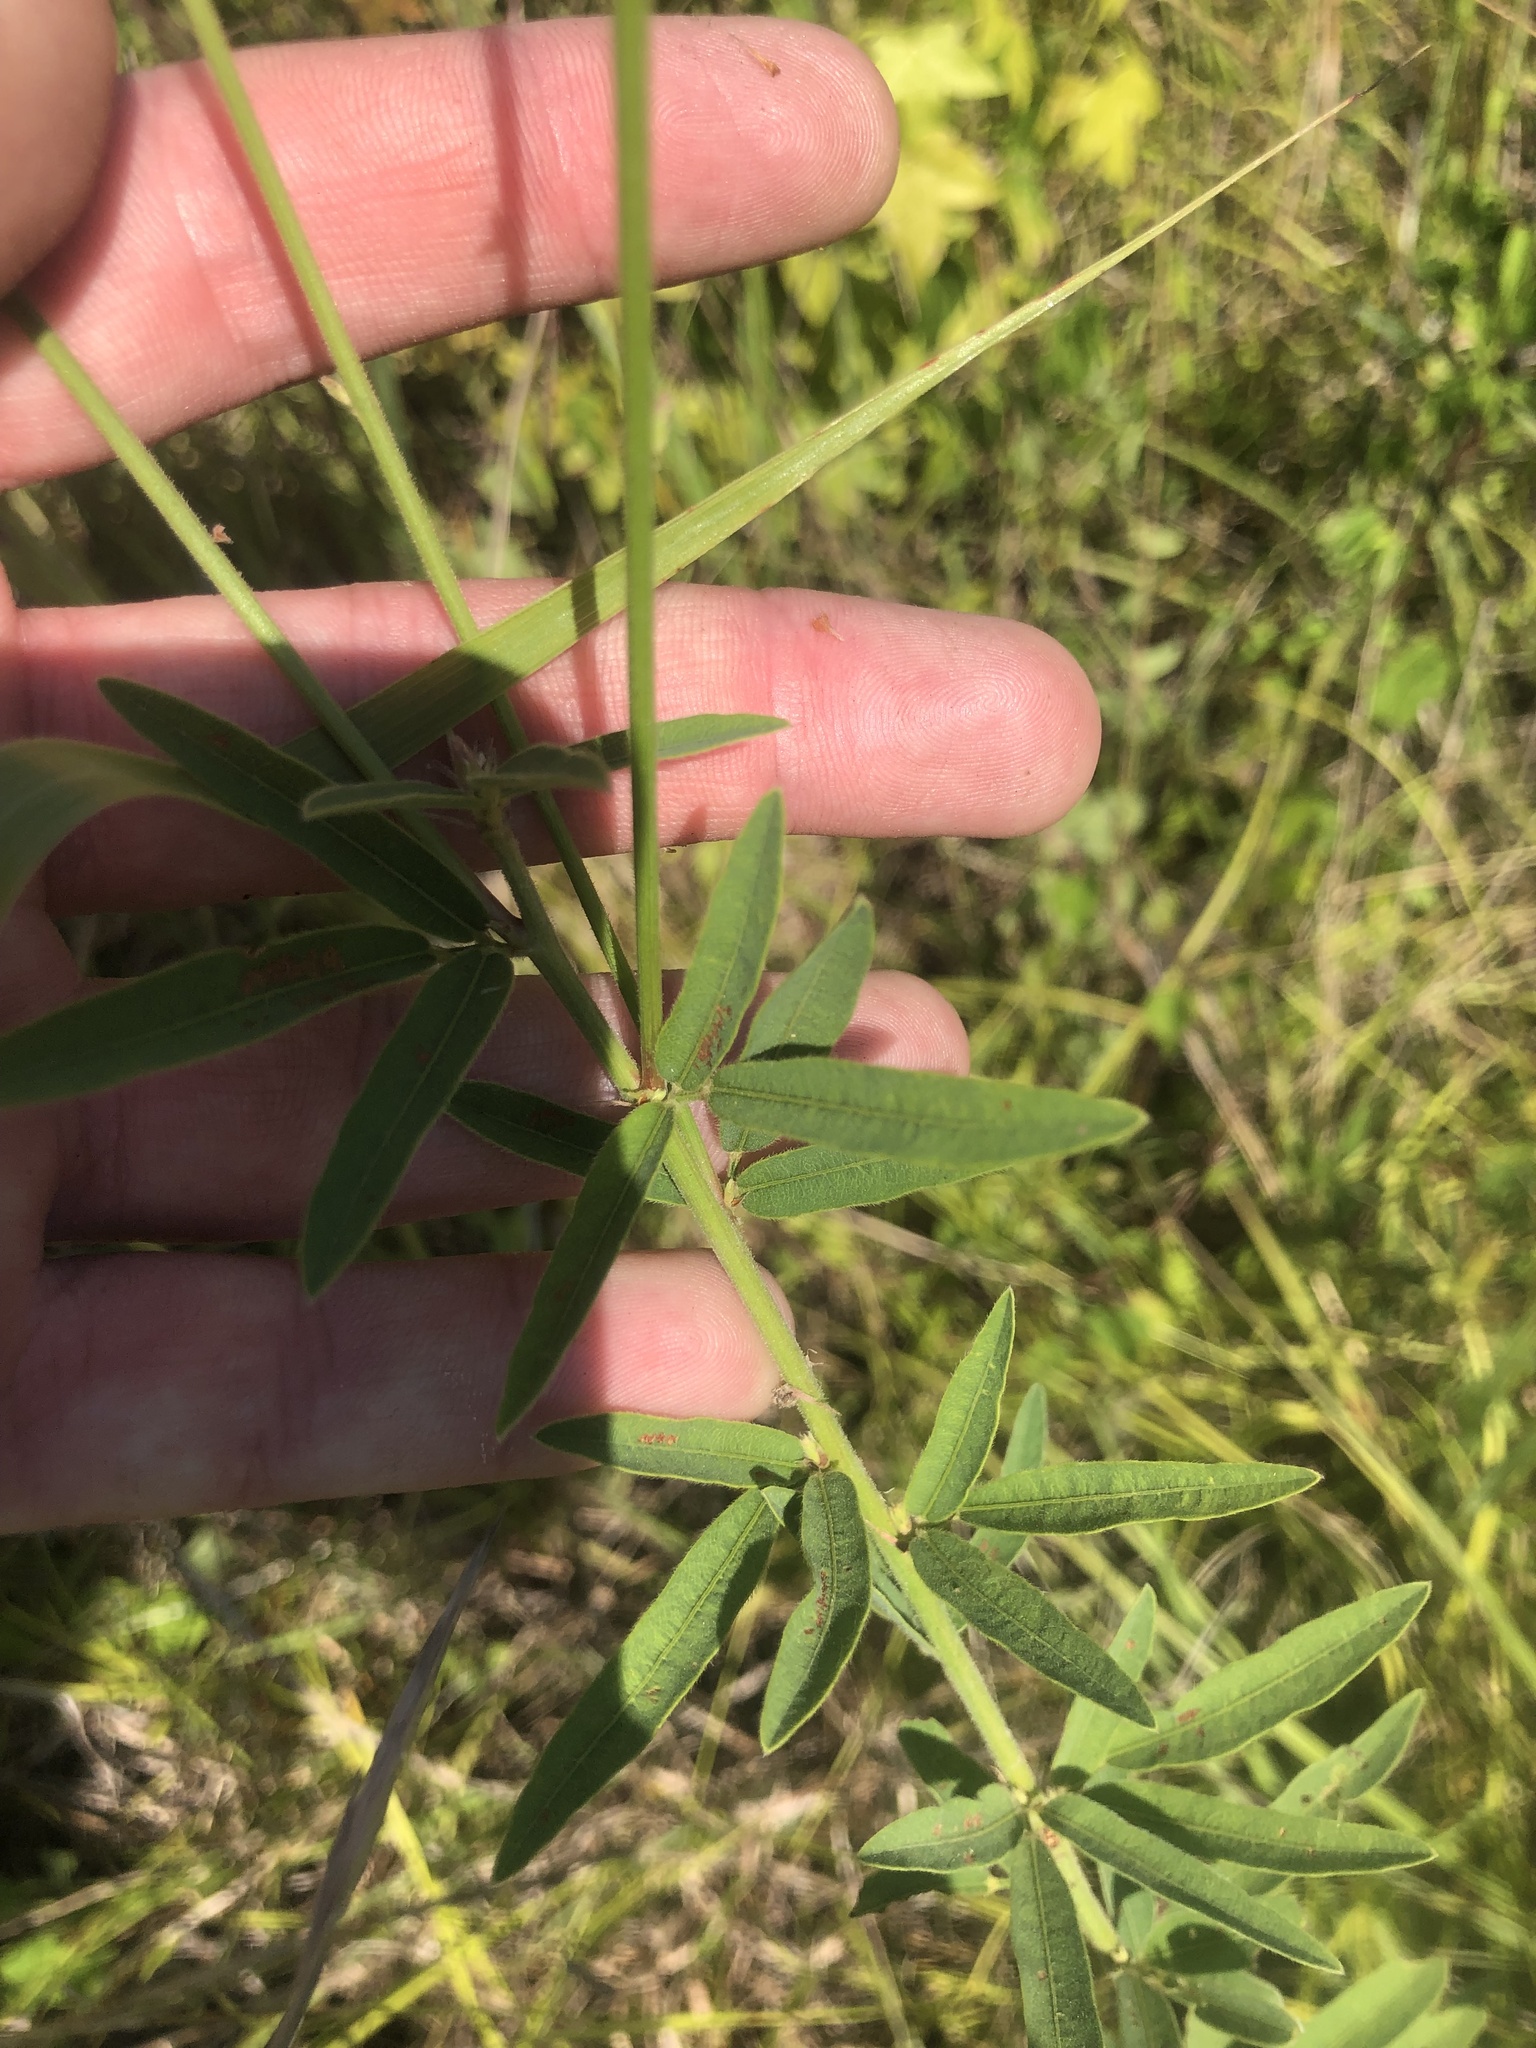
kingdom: Plantae
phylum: Tracheophyta
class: Magnoliopsida
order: Fabales
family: Fabaceae
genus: Desmodium
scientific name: Desmodium sessilifolium
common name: Sessile tick-clover
